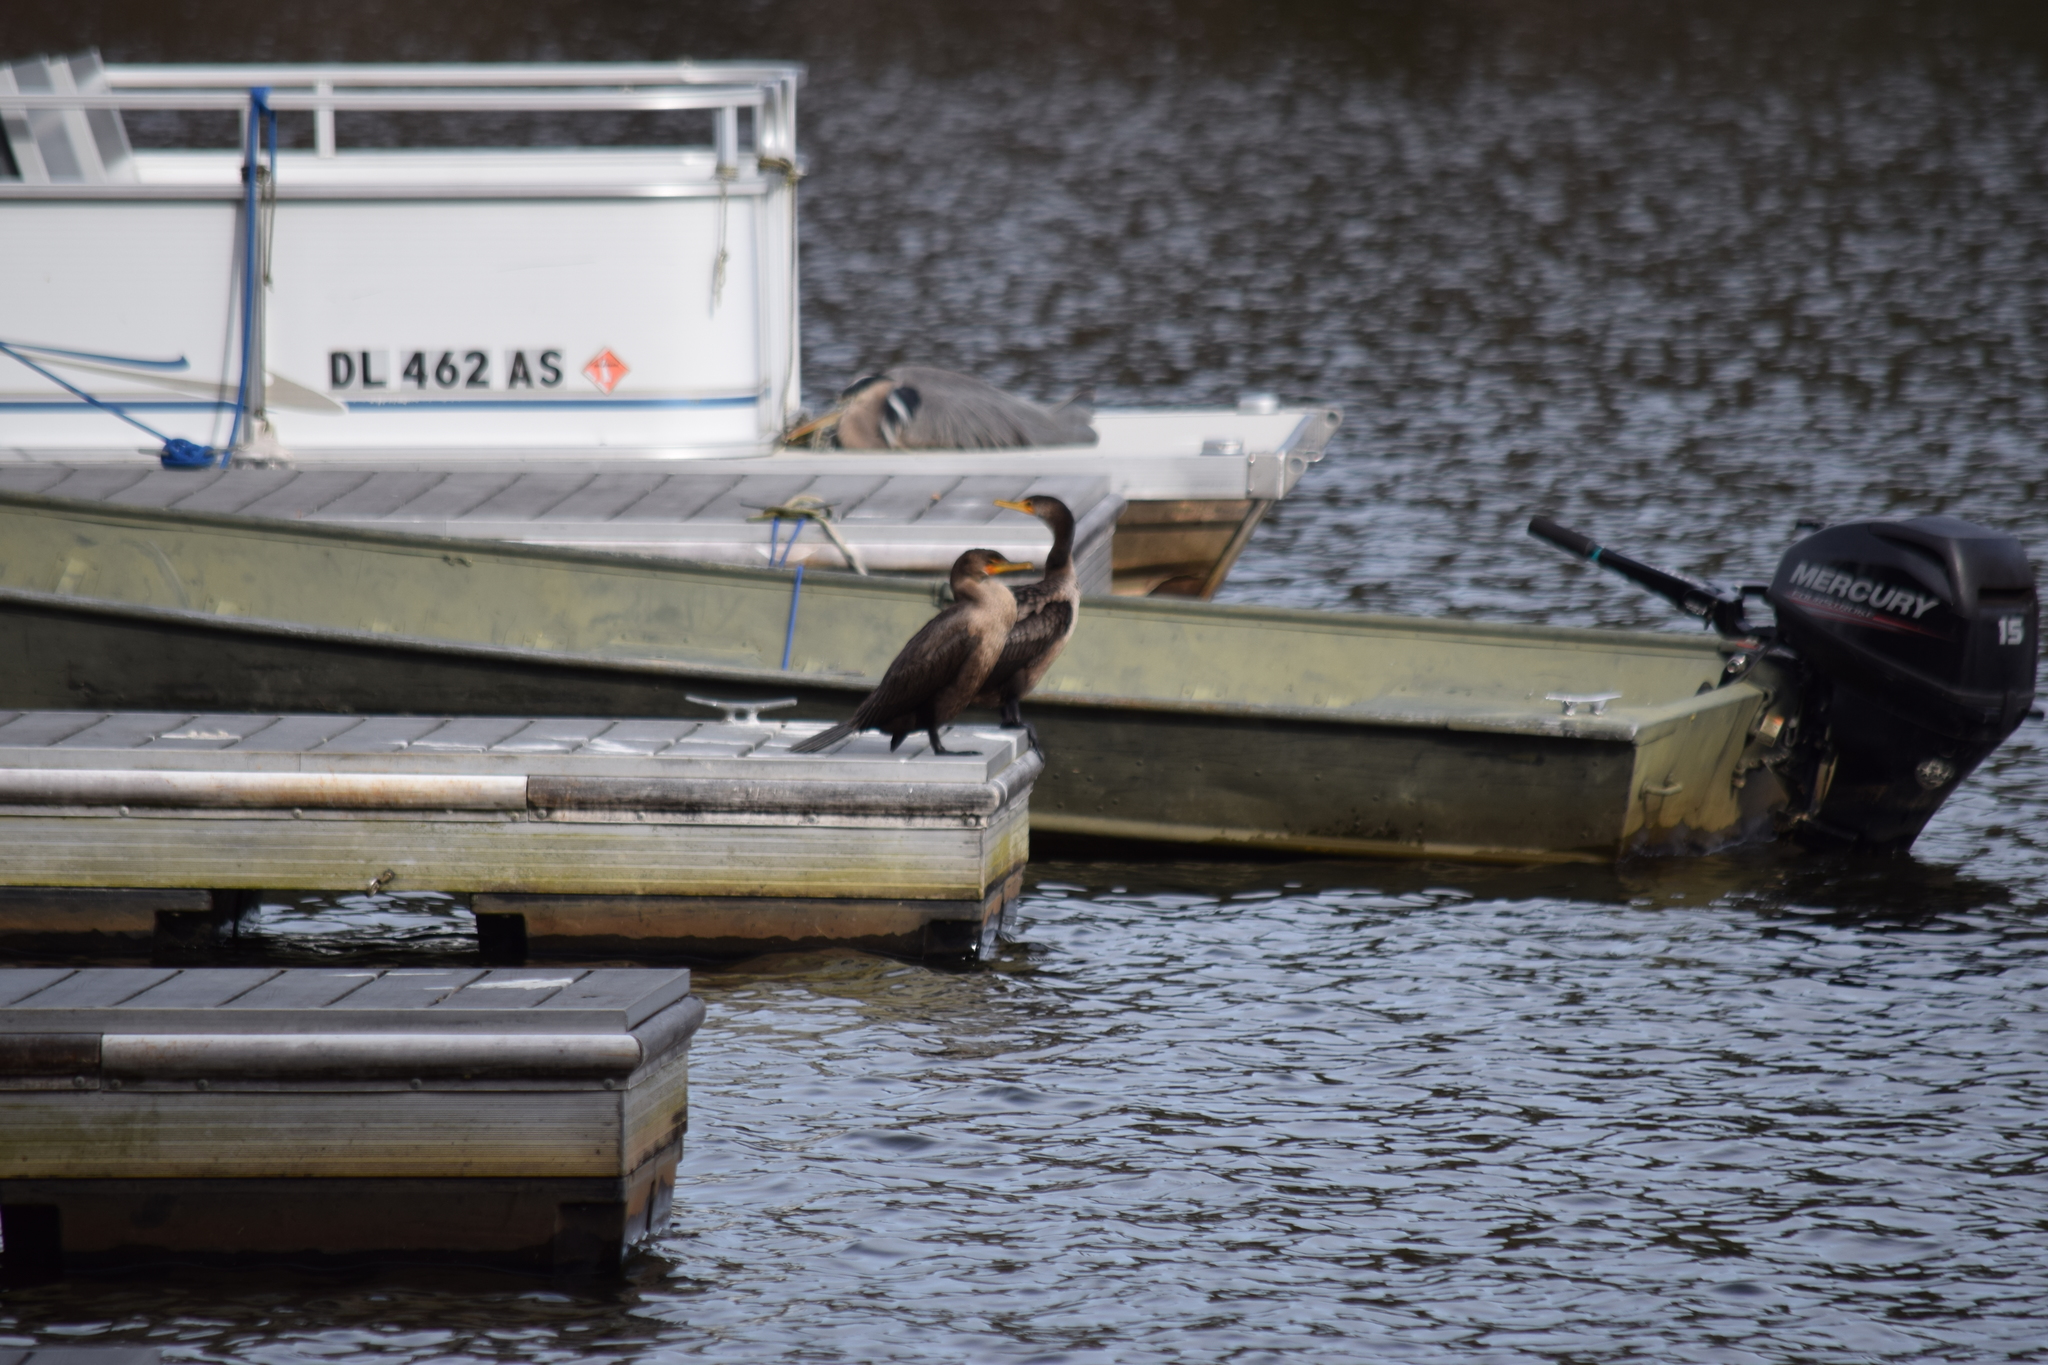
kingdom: Animalia
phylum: Chordata
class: Aves
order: Suliformes
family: Phalacrocoracidae
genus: Phalacrocorax
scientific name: Phalacrocorax auritus
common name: Double-crested cormorant
